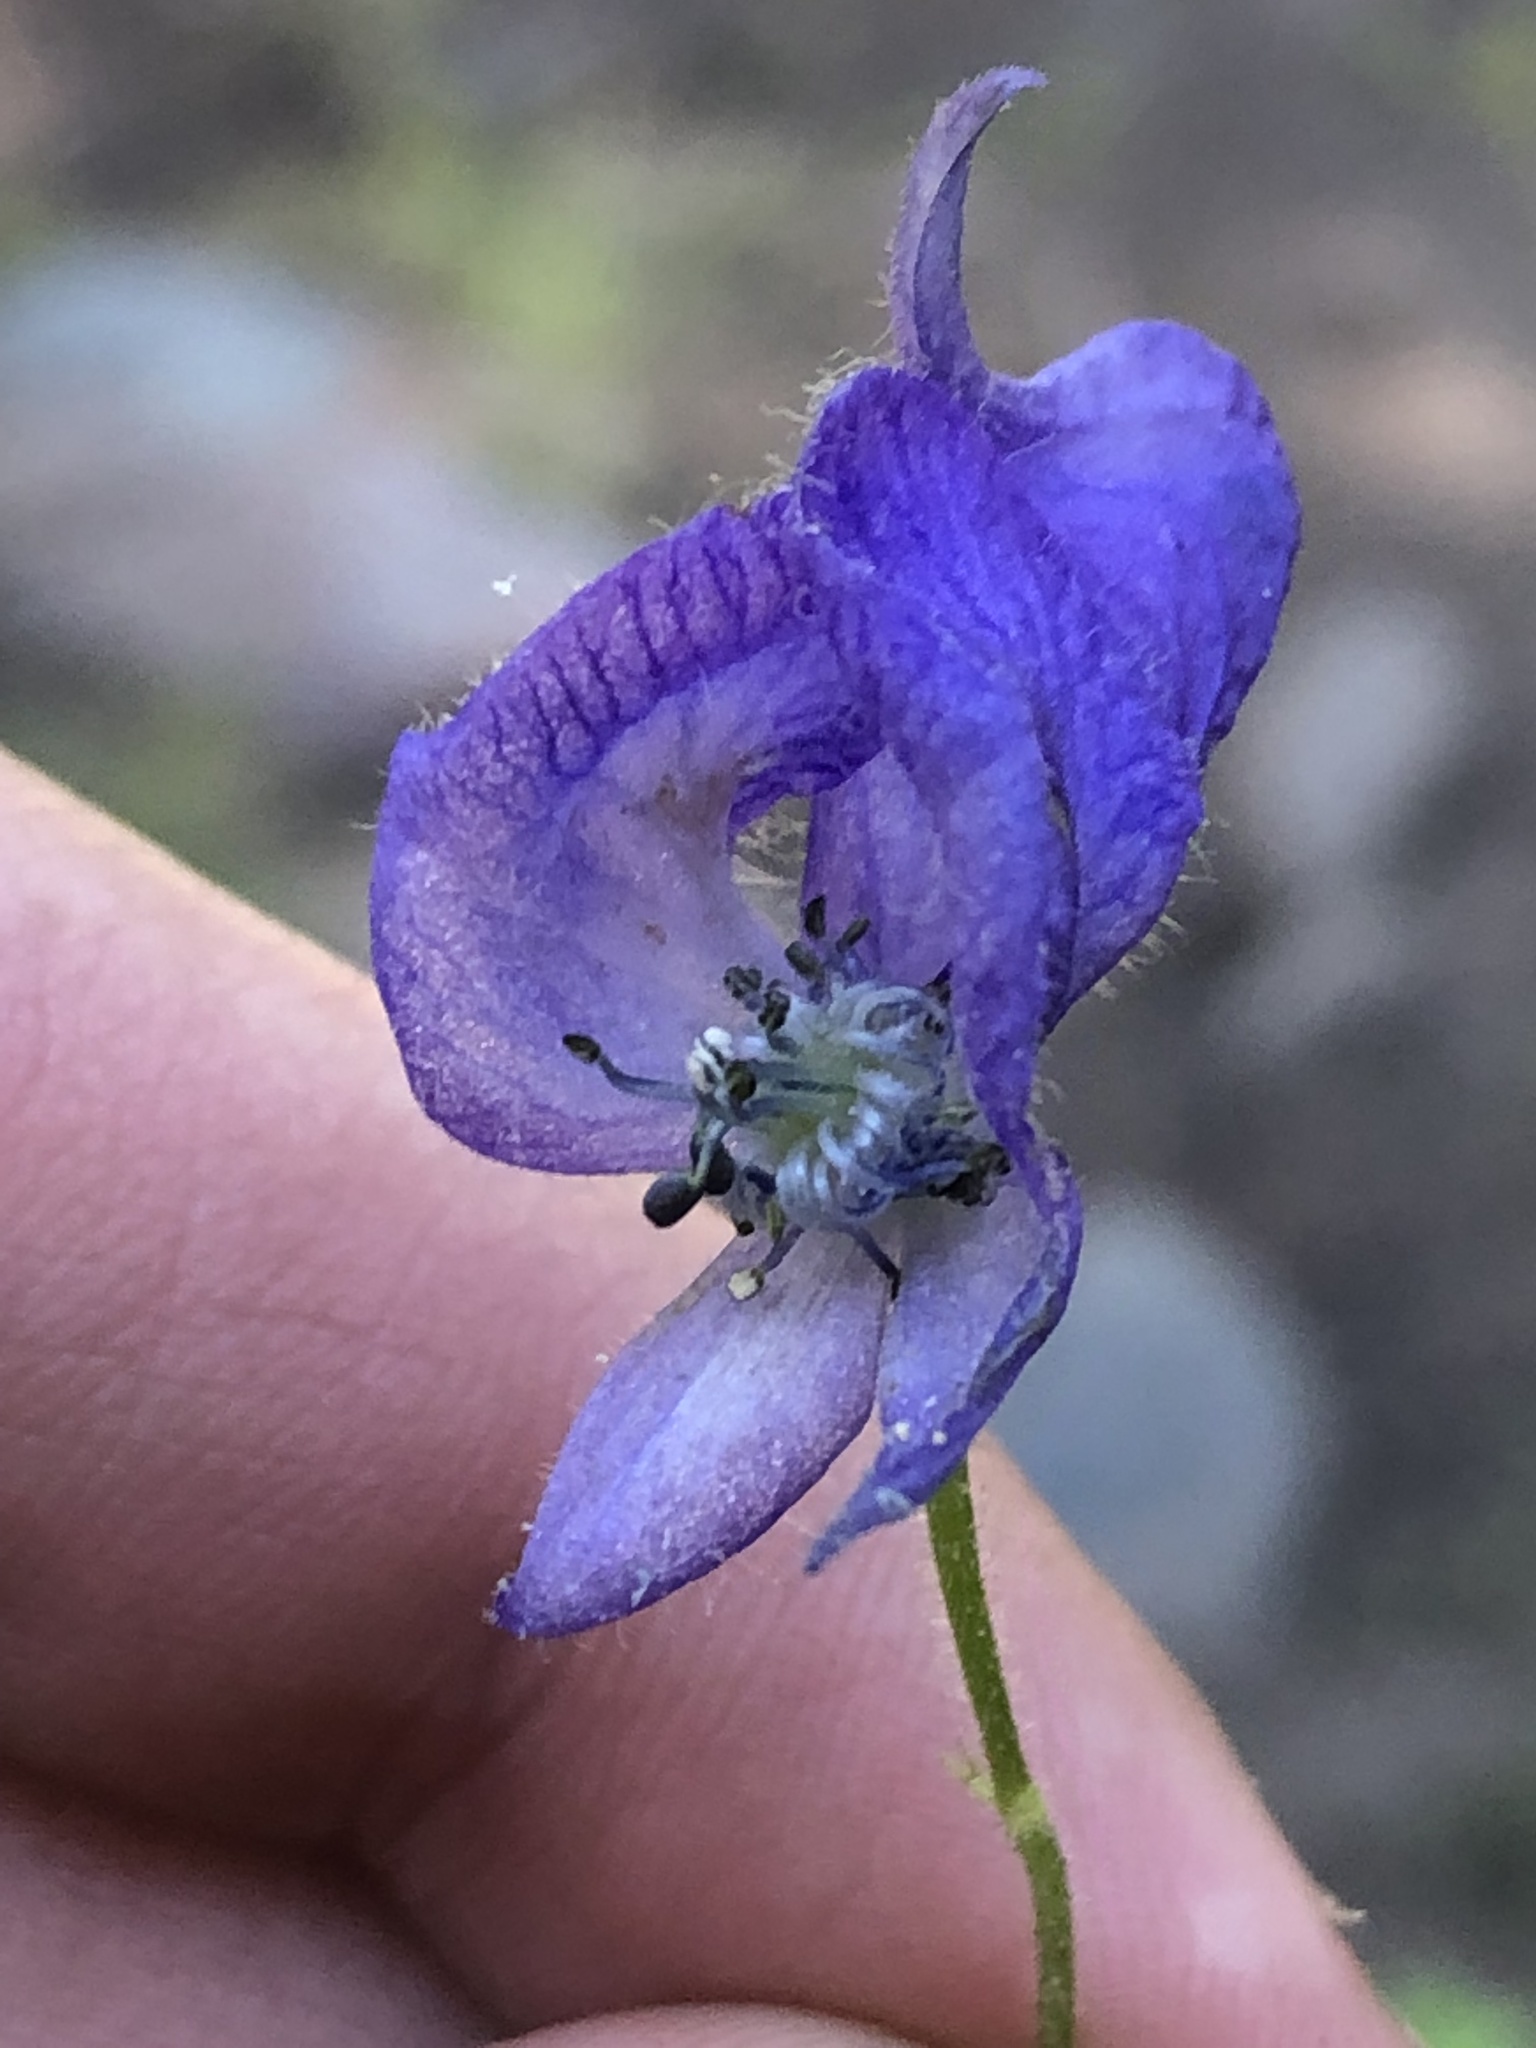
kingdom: Plantae
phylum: Tracheophyta
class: Magnoliopsida
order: Ranunculales
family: Ranunculaceae
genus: Aconitum
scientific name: Aconitum columbianum
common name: Columbia aconite
